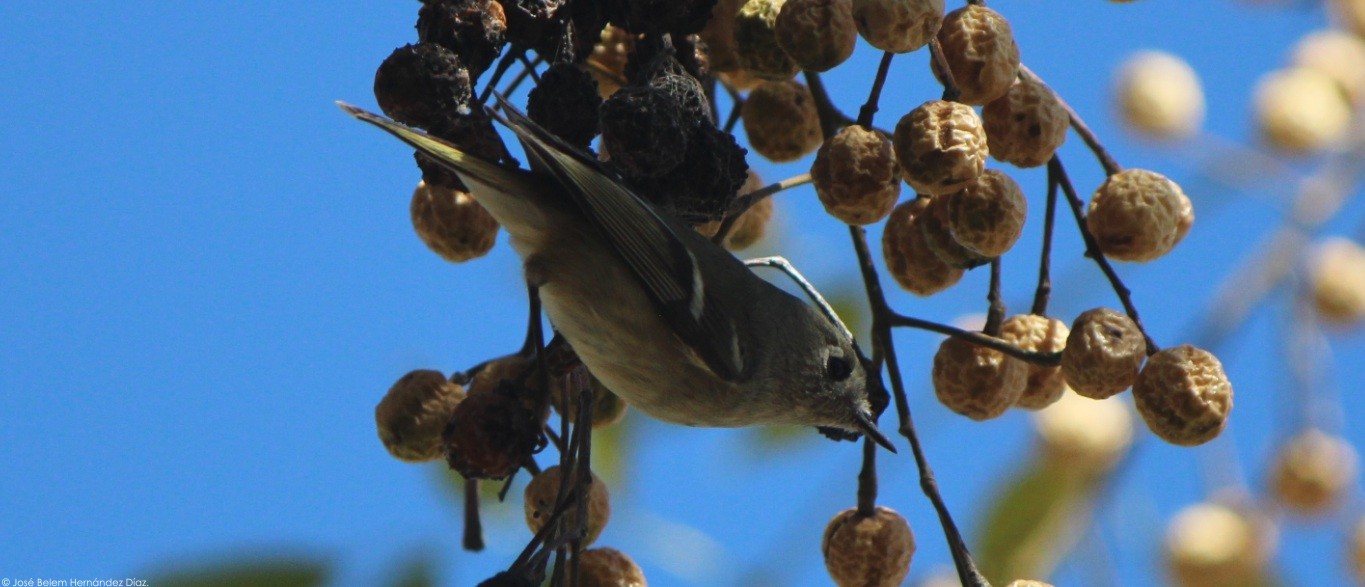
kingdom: Animalia
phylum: Chordata
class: Aves
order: Passeriformes
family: Regulidae
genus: Regulus
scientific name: Regulus calendula
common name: Ruby-crowned kinglet
